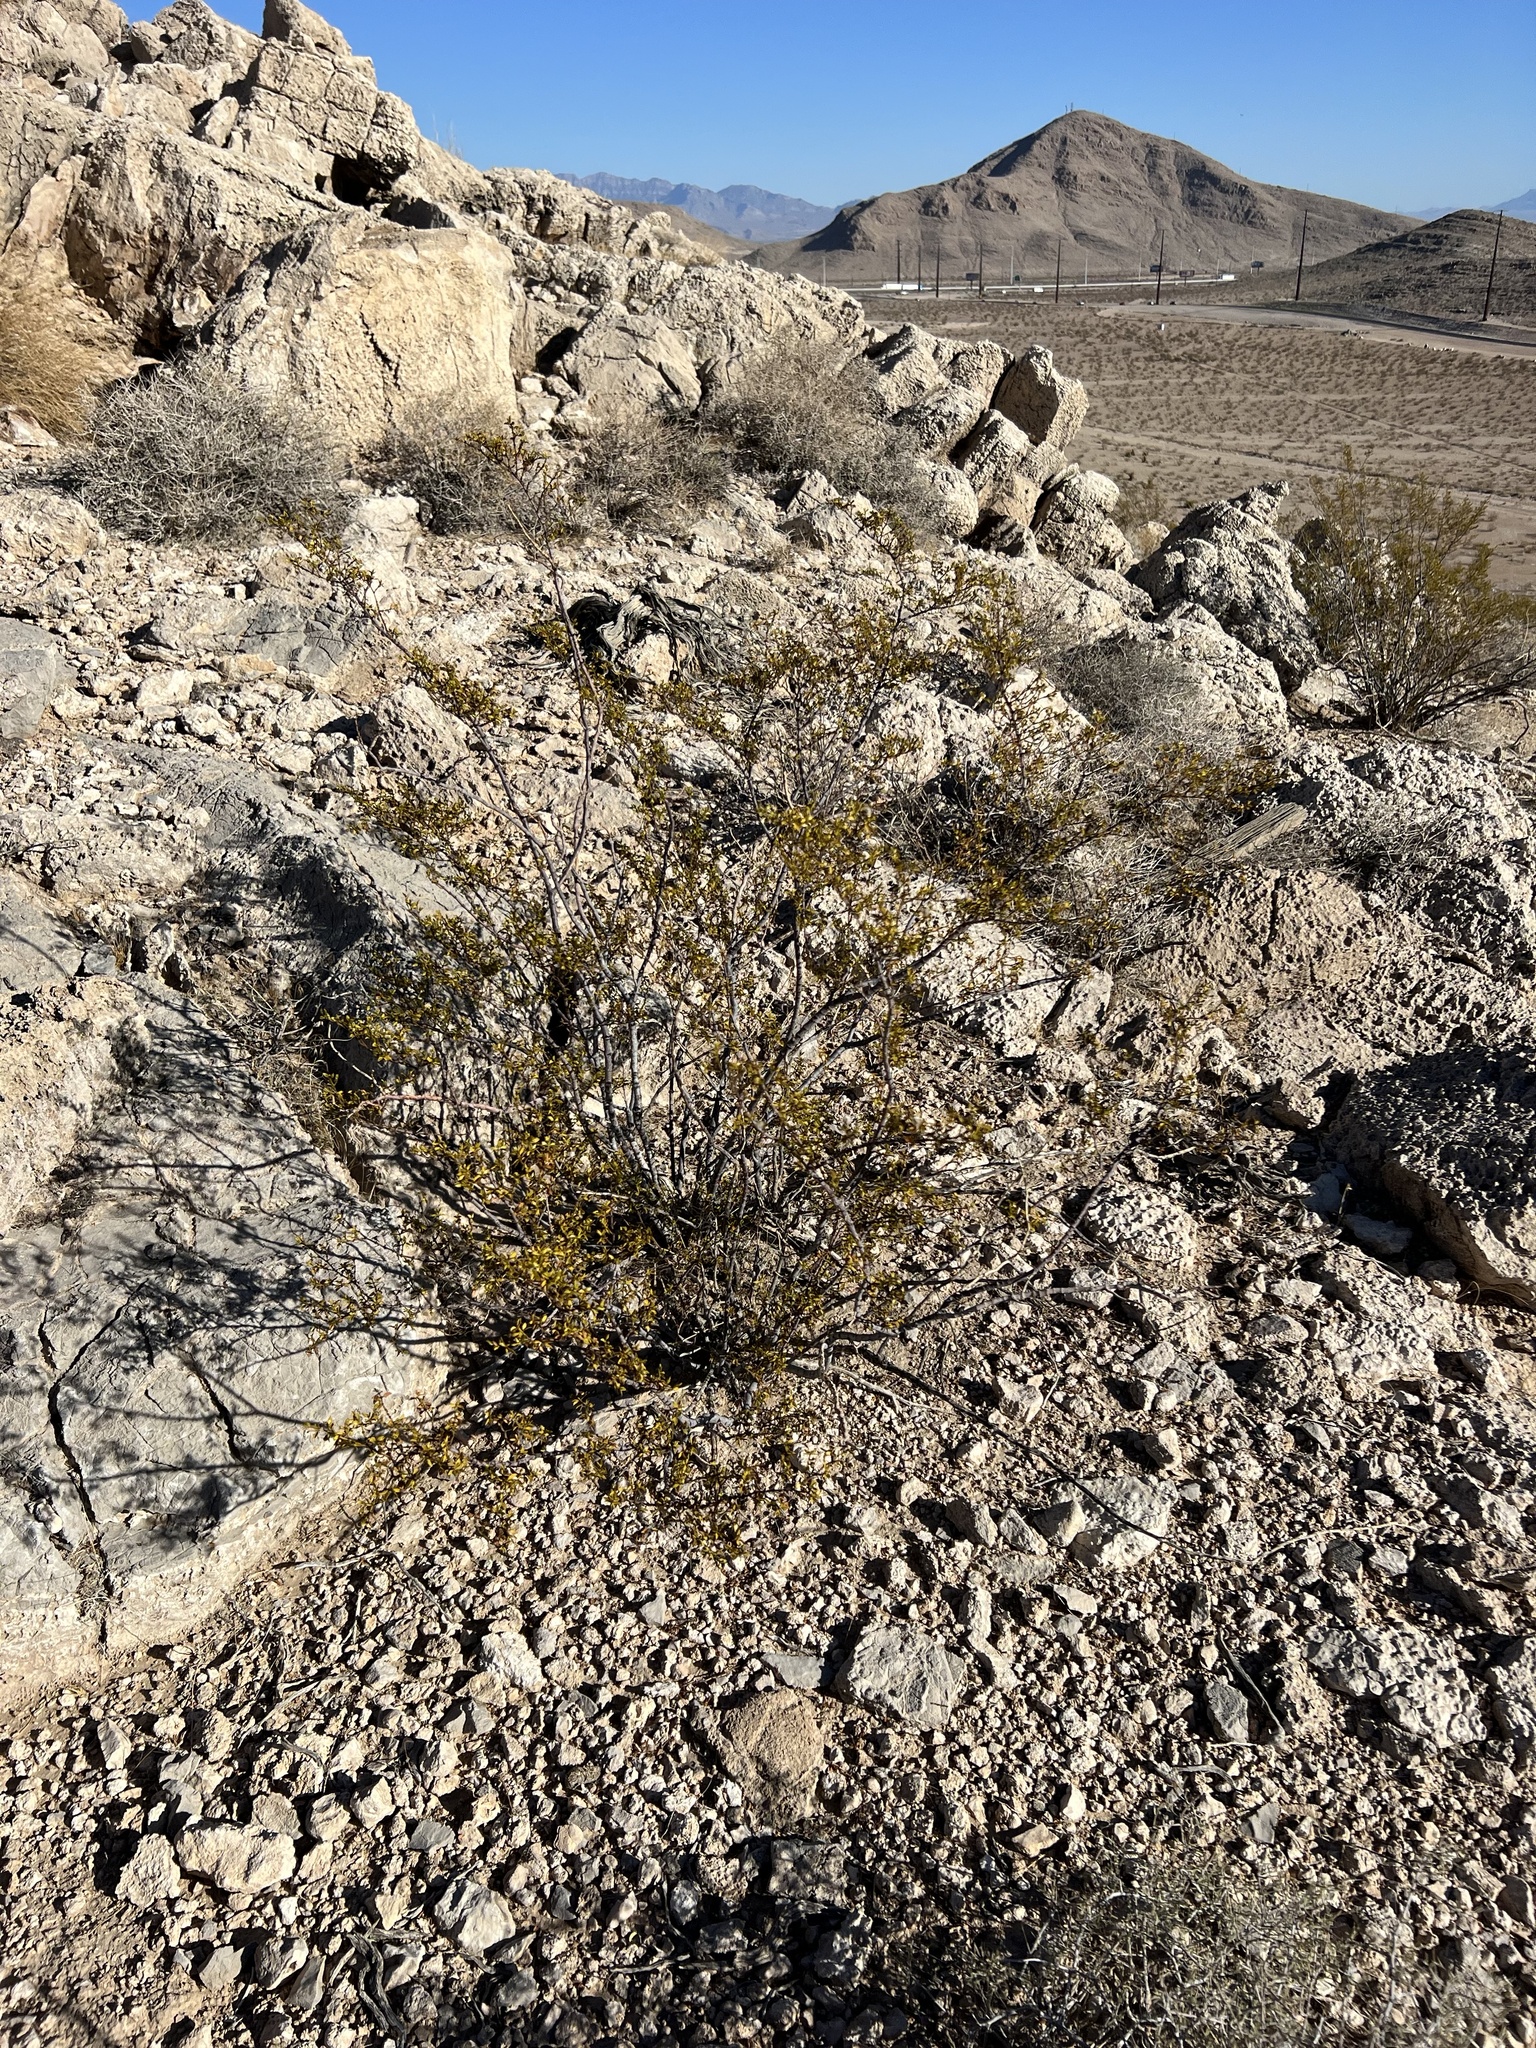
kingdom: Plantae
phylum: Tracheophyta
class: Magnoliopsida
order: Zygophyllales
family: Zygophyllaceae
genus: Larrea
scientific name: Larrea tridentata
